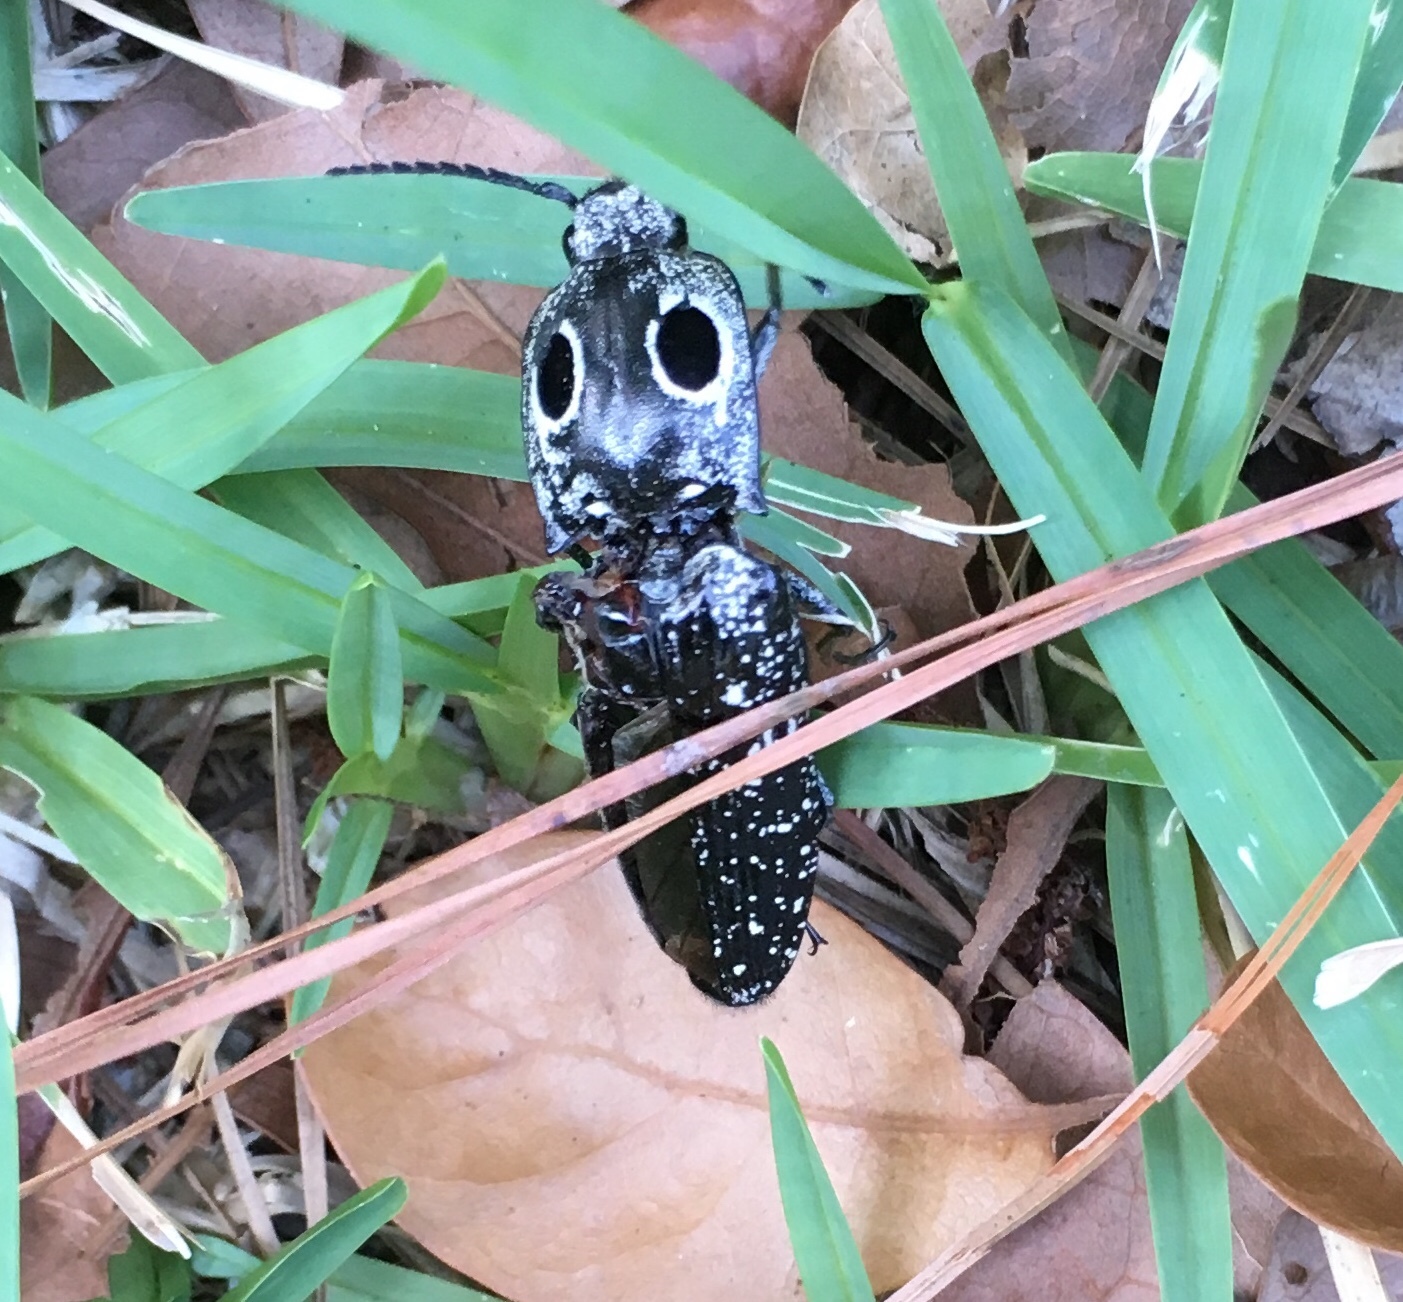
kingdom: Animalia
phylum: Arthropoda
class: Insecta
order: Coleoptera
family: Elateridae
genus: Alaus
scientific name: Alaus oculatus
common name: Eastern eyed click beetle
